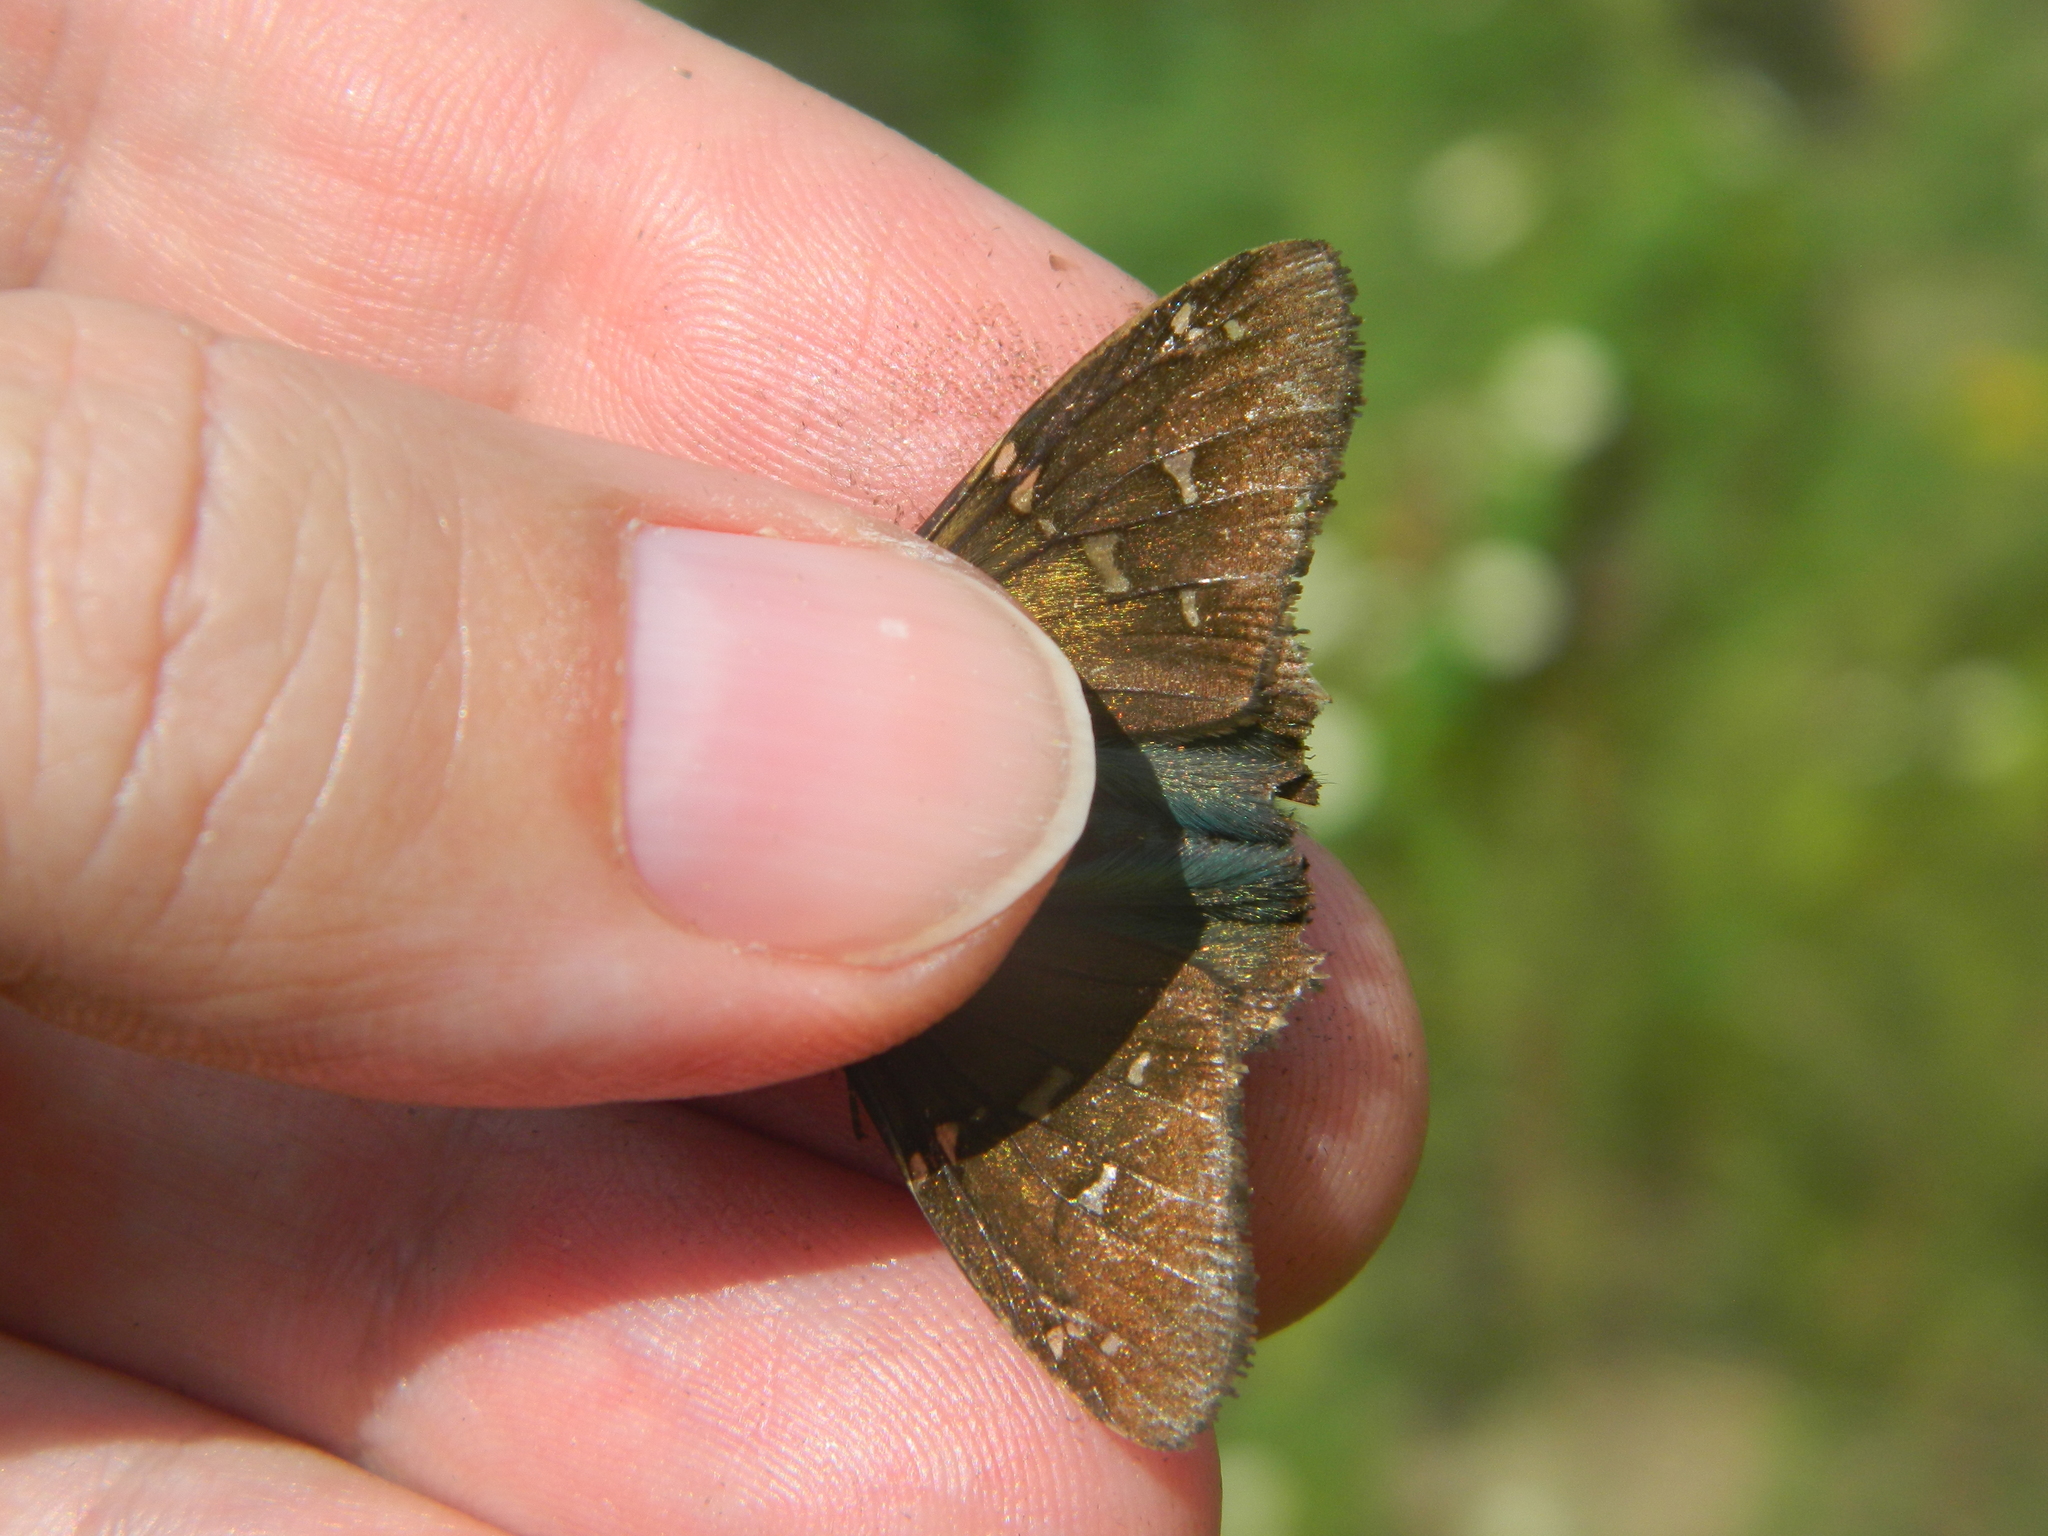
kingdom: Animalia
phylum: Arthropoda
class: Insecta
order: Lepidoptera
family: Hesperiidae
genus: Urbanus
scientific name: Urbanus proteus
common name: Long-tailed skipper
